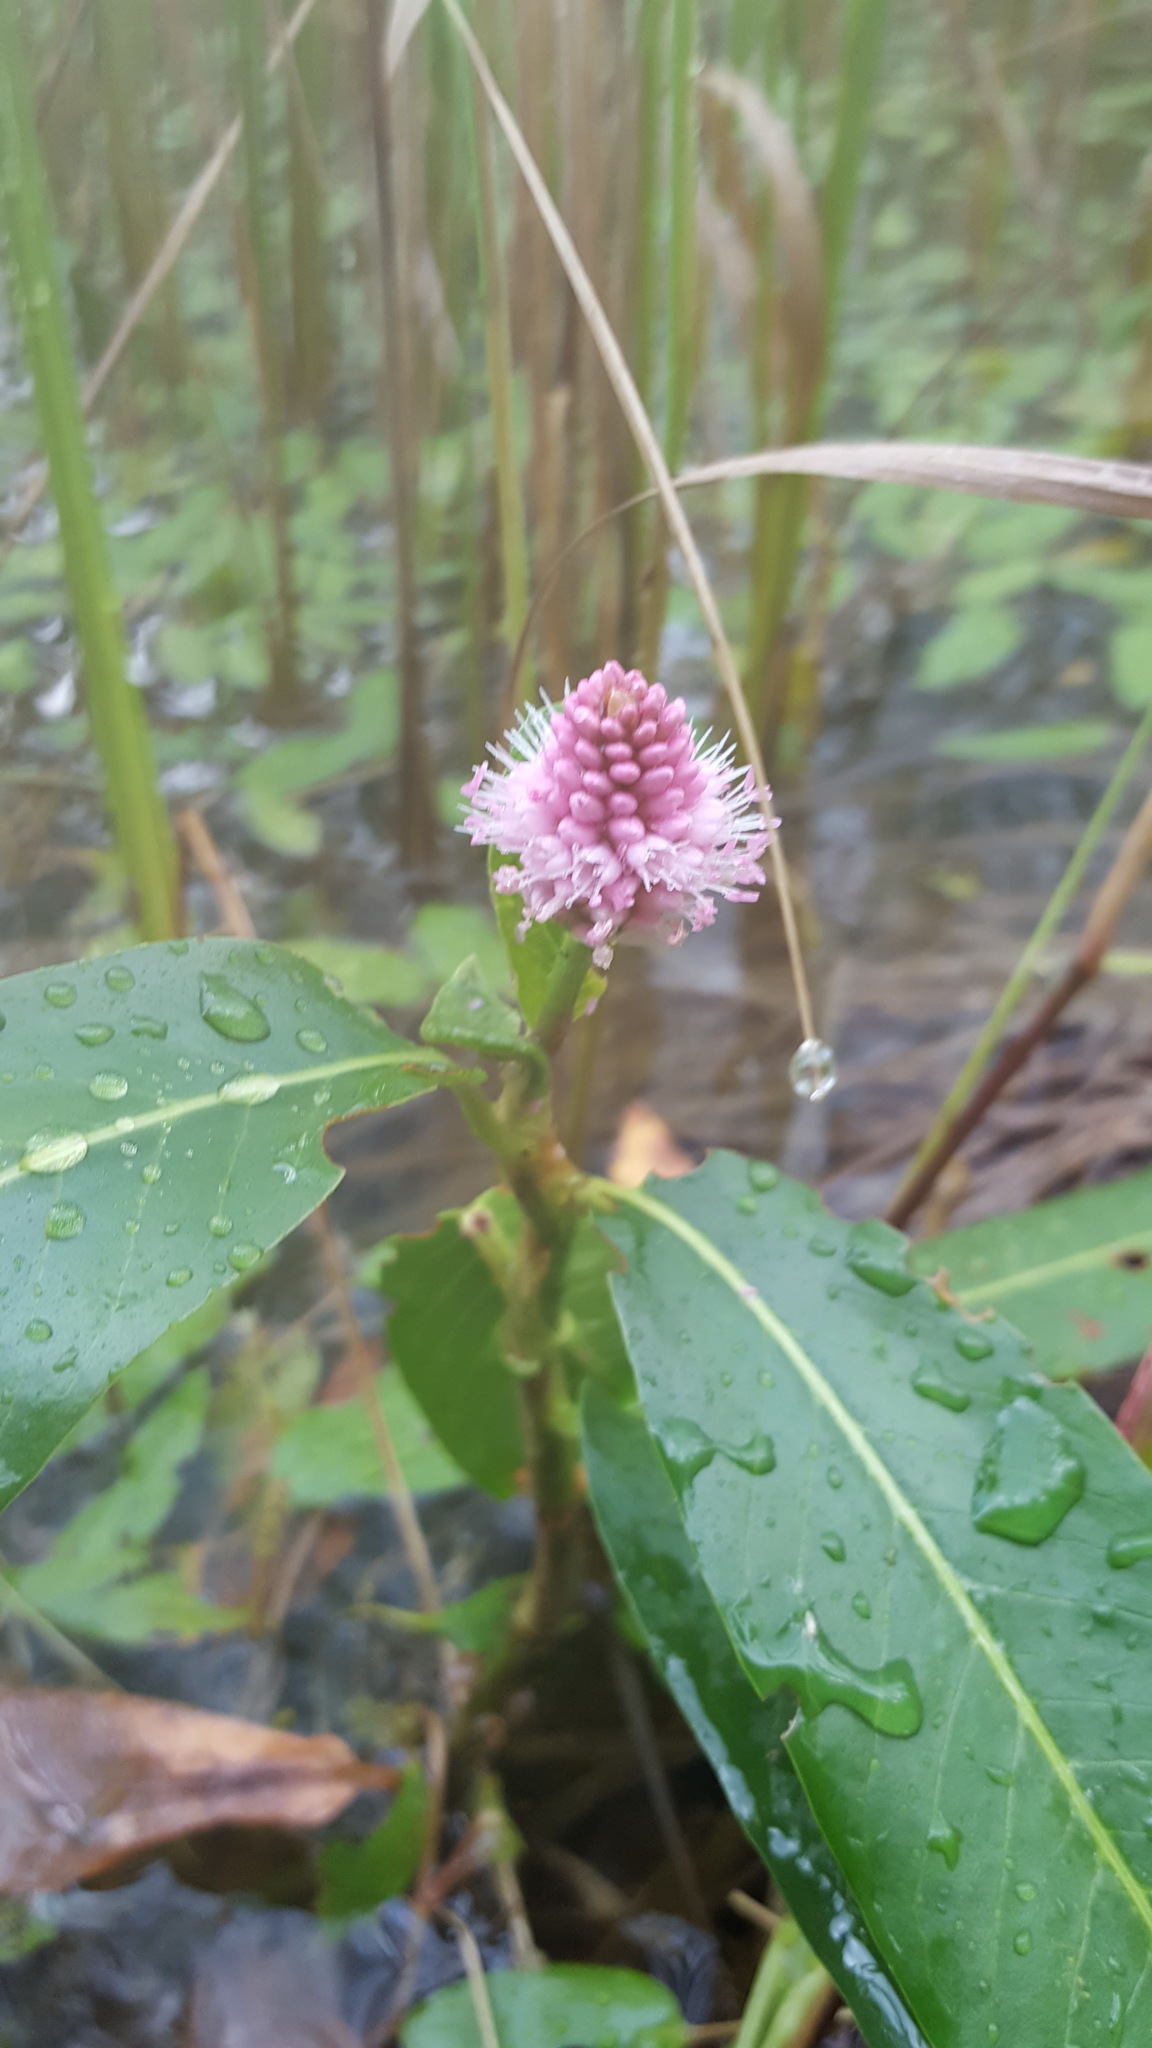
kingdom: Plantae
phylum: Tracheophyta
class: Magnoliopsida
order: Caryophyllales
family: Polygonaceae
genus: Persicaria
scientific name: Persicaria amphibia
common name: Amphibious bistort
